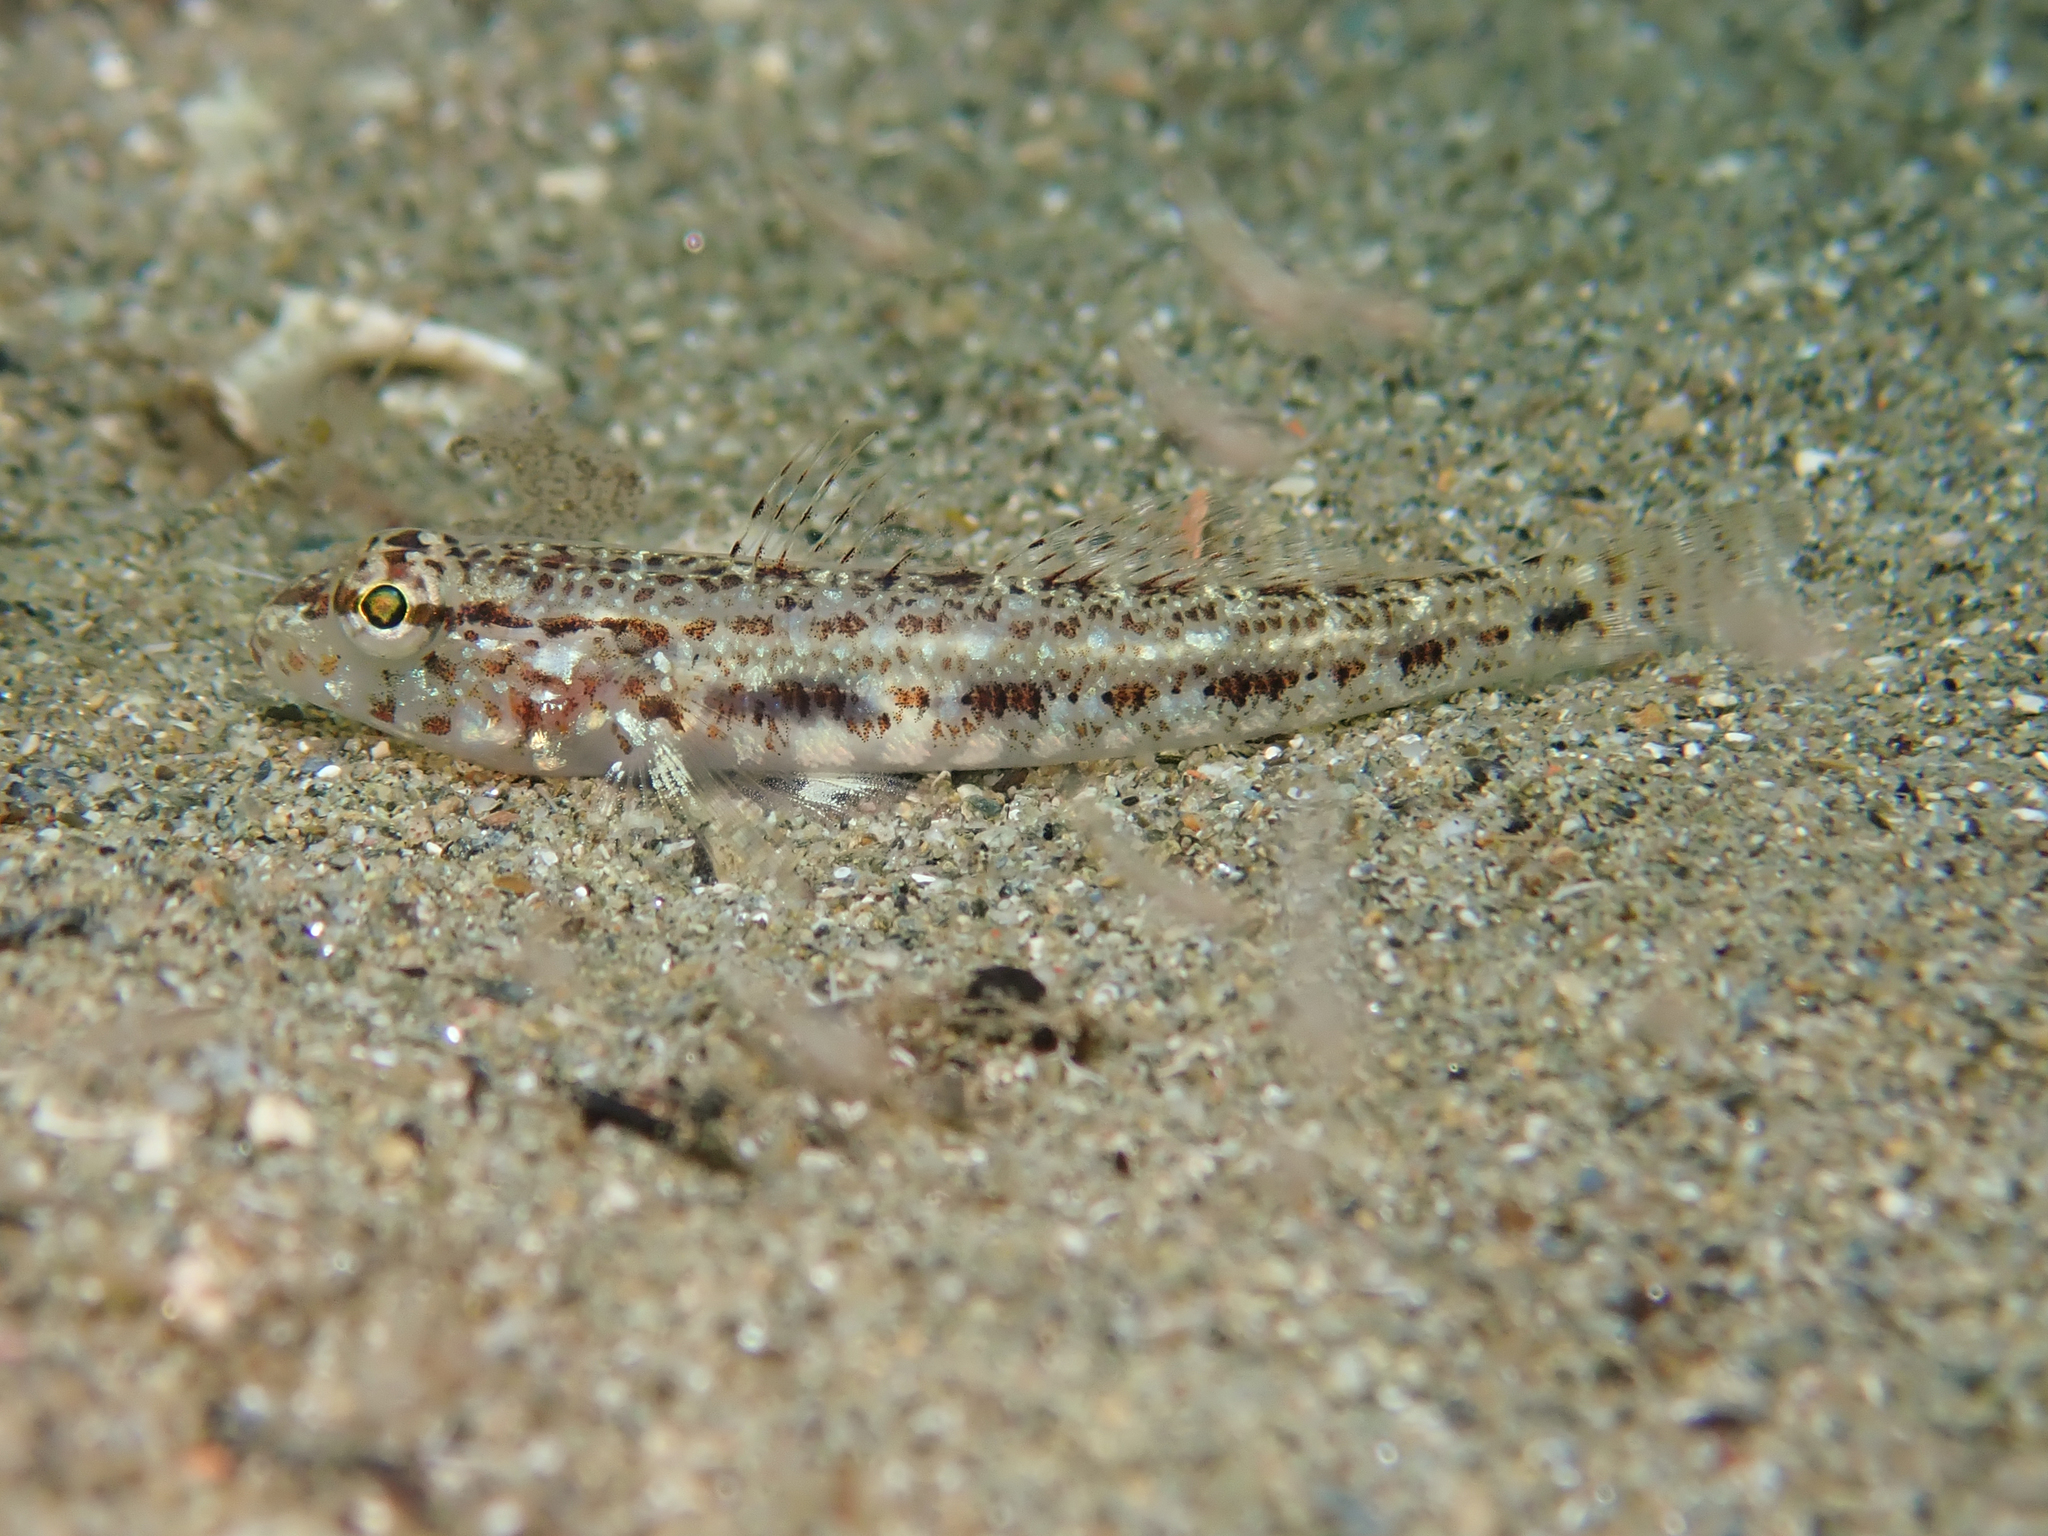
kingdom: Animalia
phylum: Chordata
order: Perciformes
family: Gobiidae
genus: Gobius
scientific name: Gobius geniporus
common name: Slender goby
